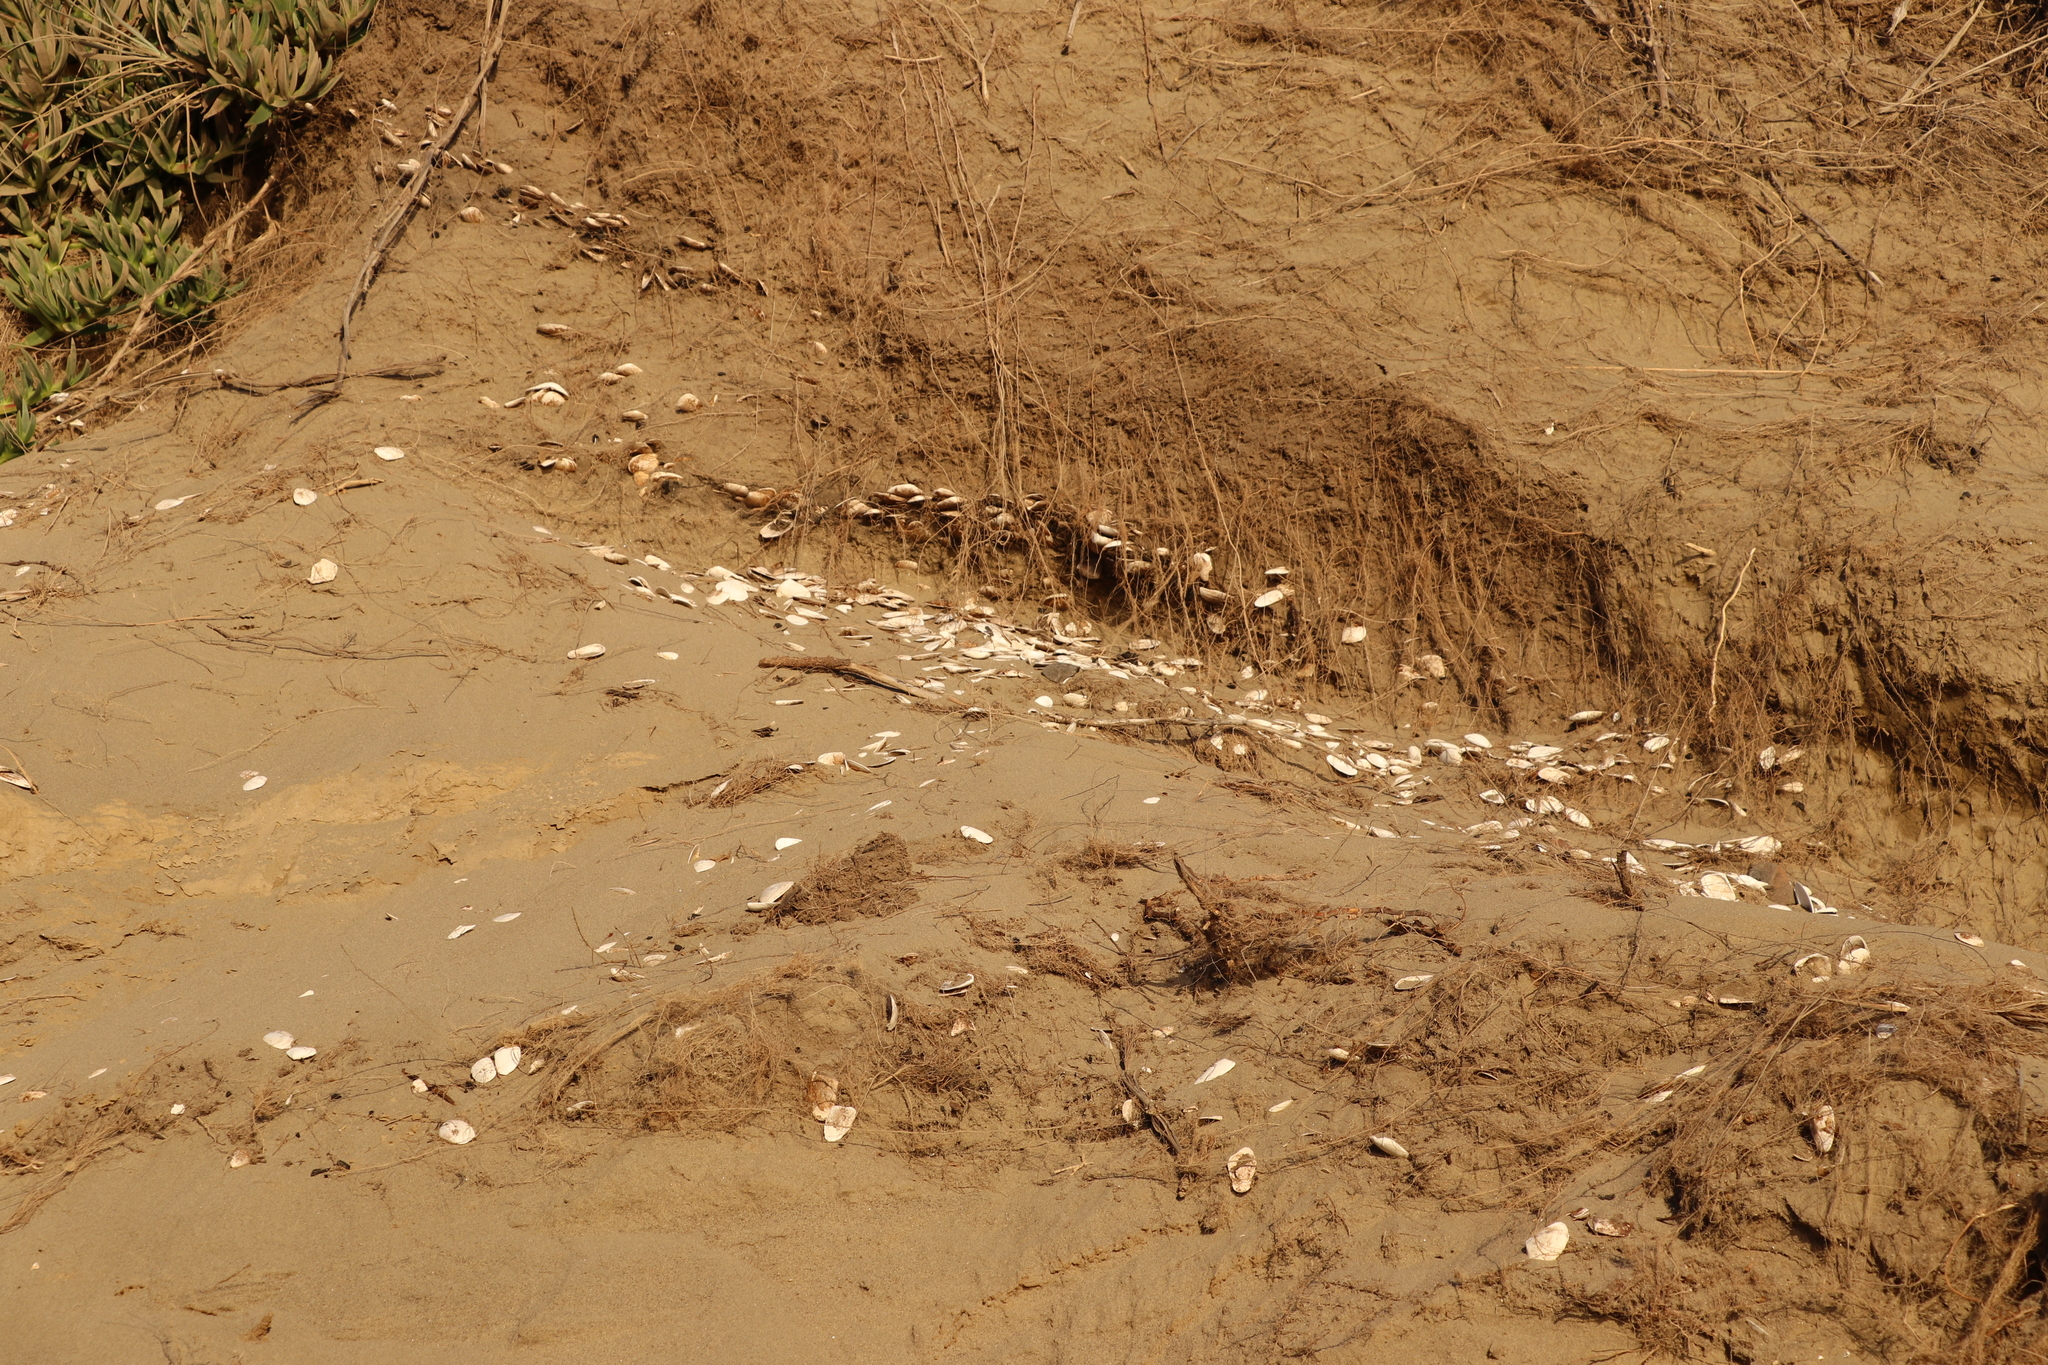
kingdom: Animalia
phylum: Mollusca
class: Bivalvia
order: Venerida
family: Mesodesmatidae
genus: Paphies
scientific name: Paphies subtriangulata
